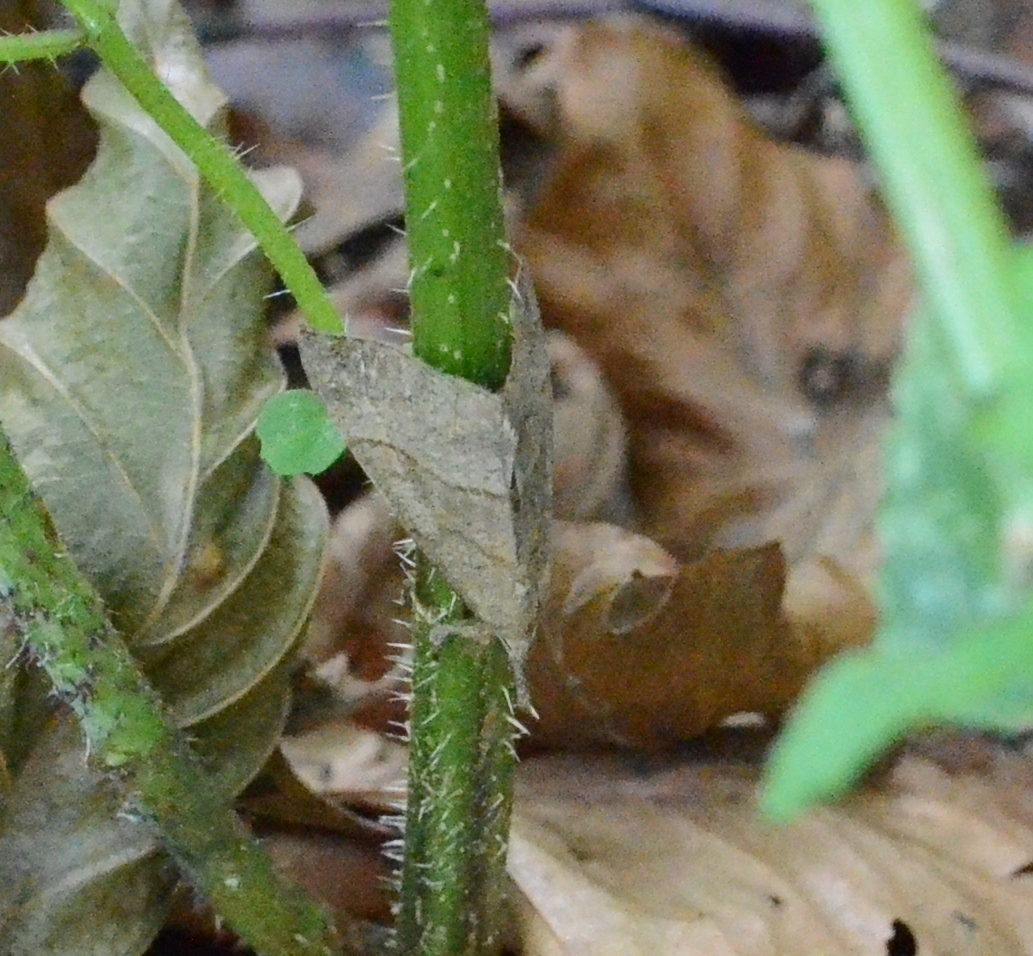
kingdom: Animalia
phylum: Arthropoda
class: Insecta
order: Lepidoptera
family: Erebidae
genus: Hypena
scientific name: Hypena proboscidalis
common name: Snout
